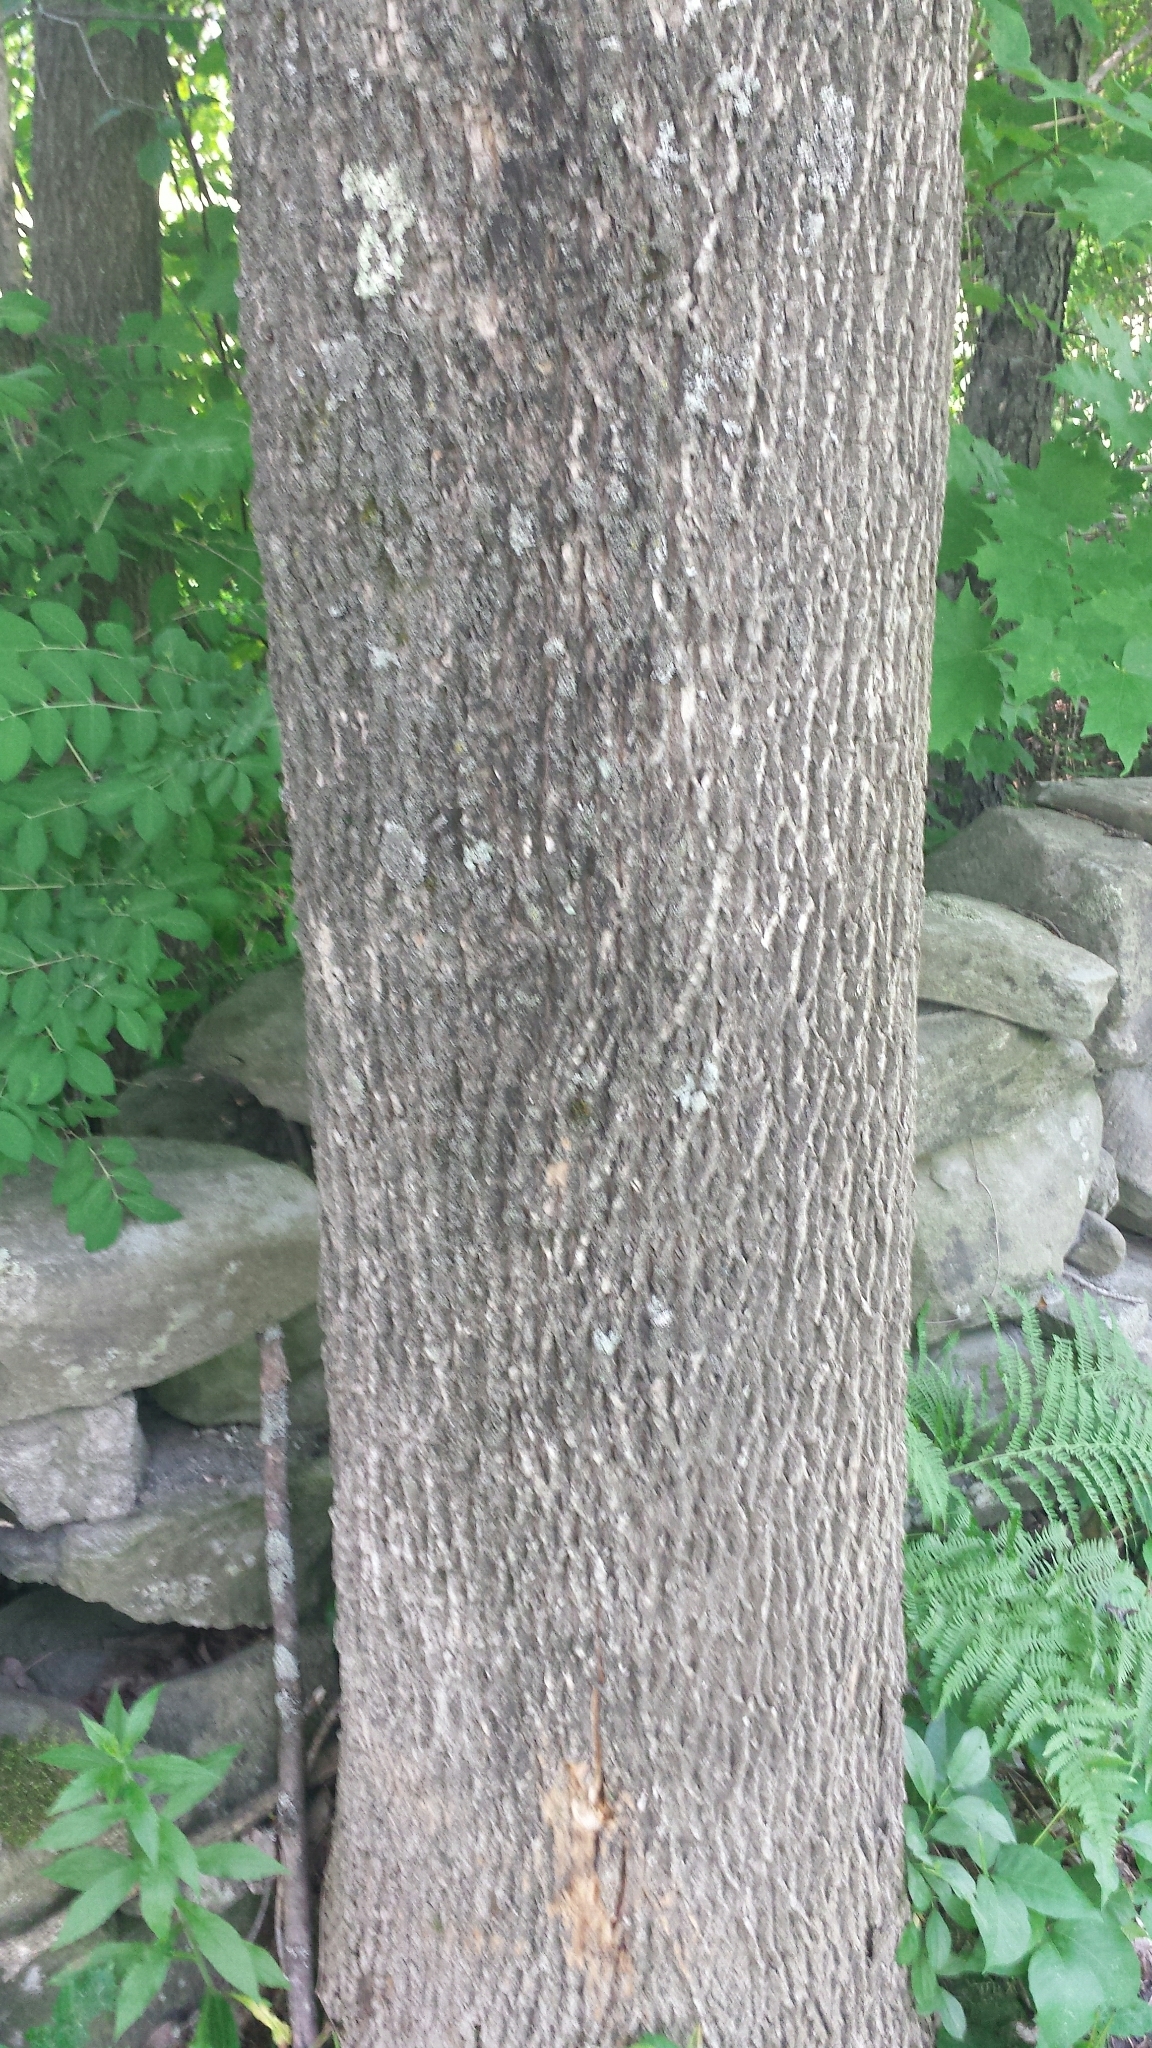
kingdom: Plantae
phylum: Tracheophyta
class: Magnoliopsida
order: Lamiales
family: Oleaceae
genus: Fraxinus
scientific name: Fraxinus americana
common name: White ash
